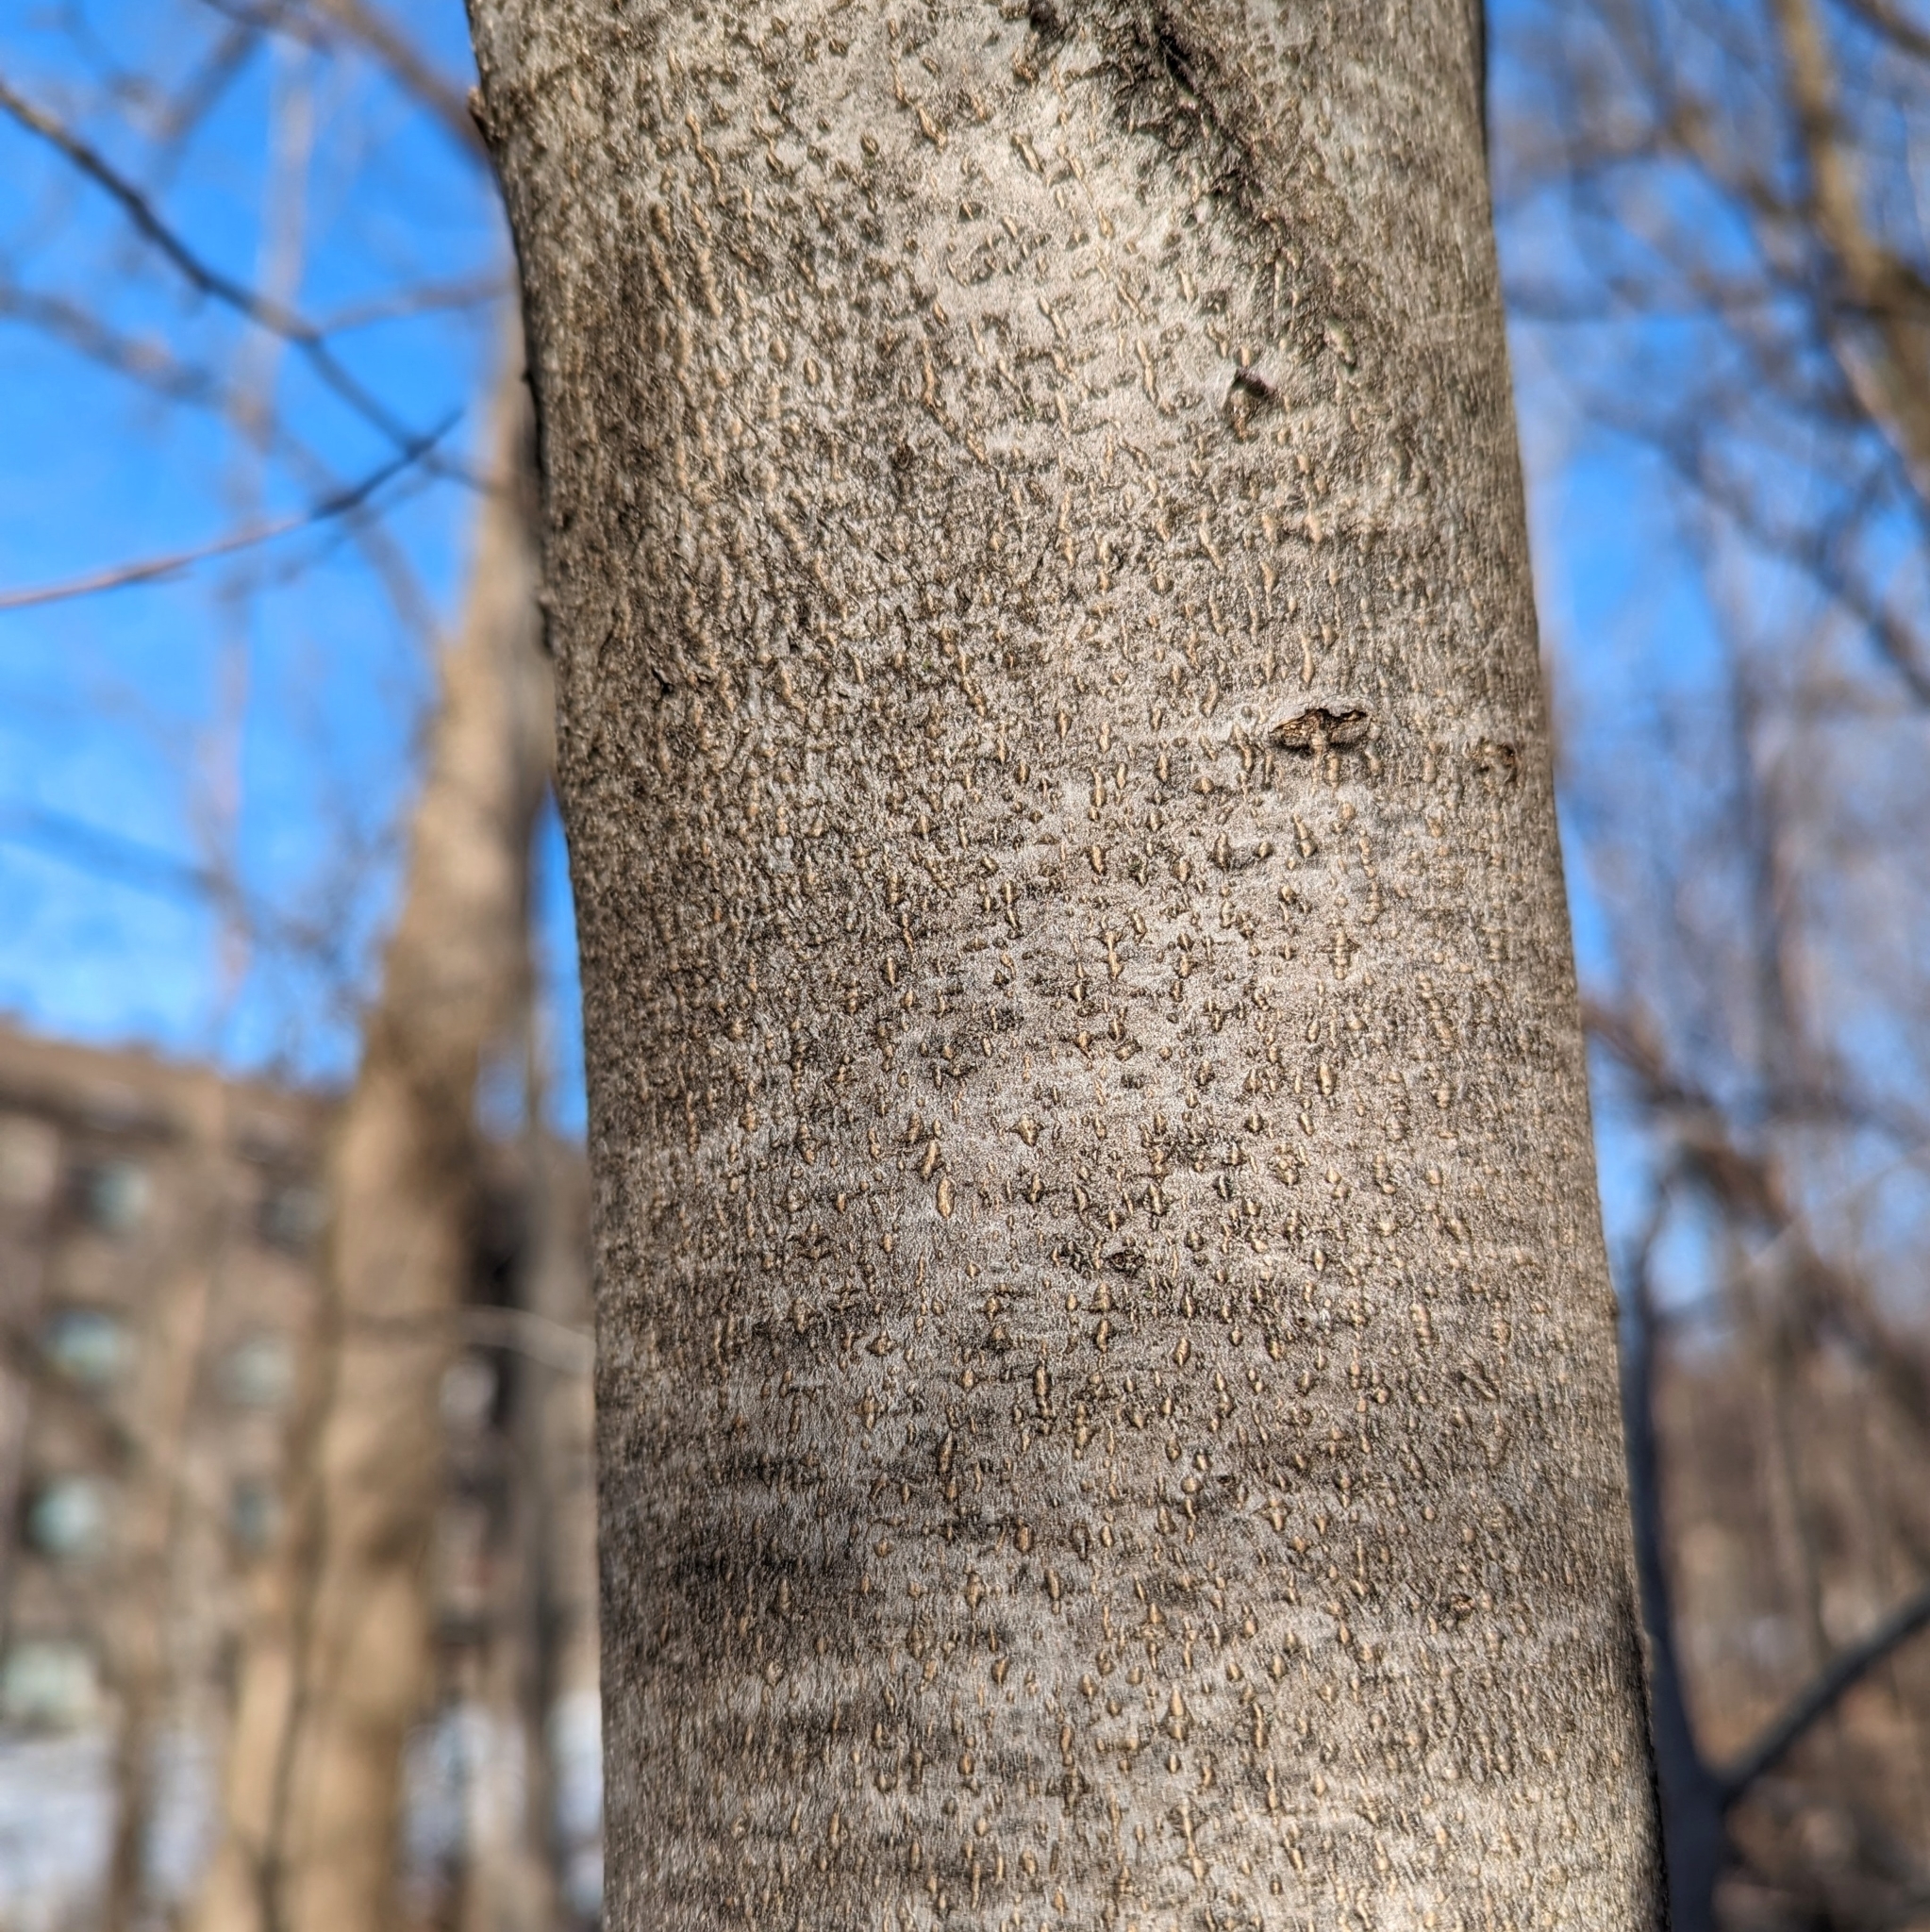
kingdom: Plantae
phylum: Tracheophyta
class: Magnoliopsida
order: Fagales
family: Fagaceae
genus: Fagus
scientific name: Fagus grandifolia
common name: American beech
